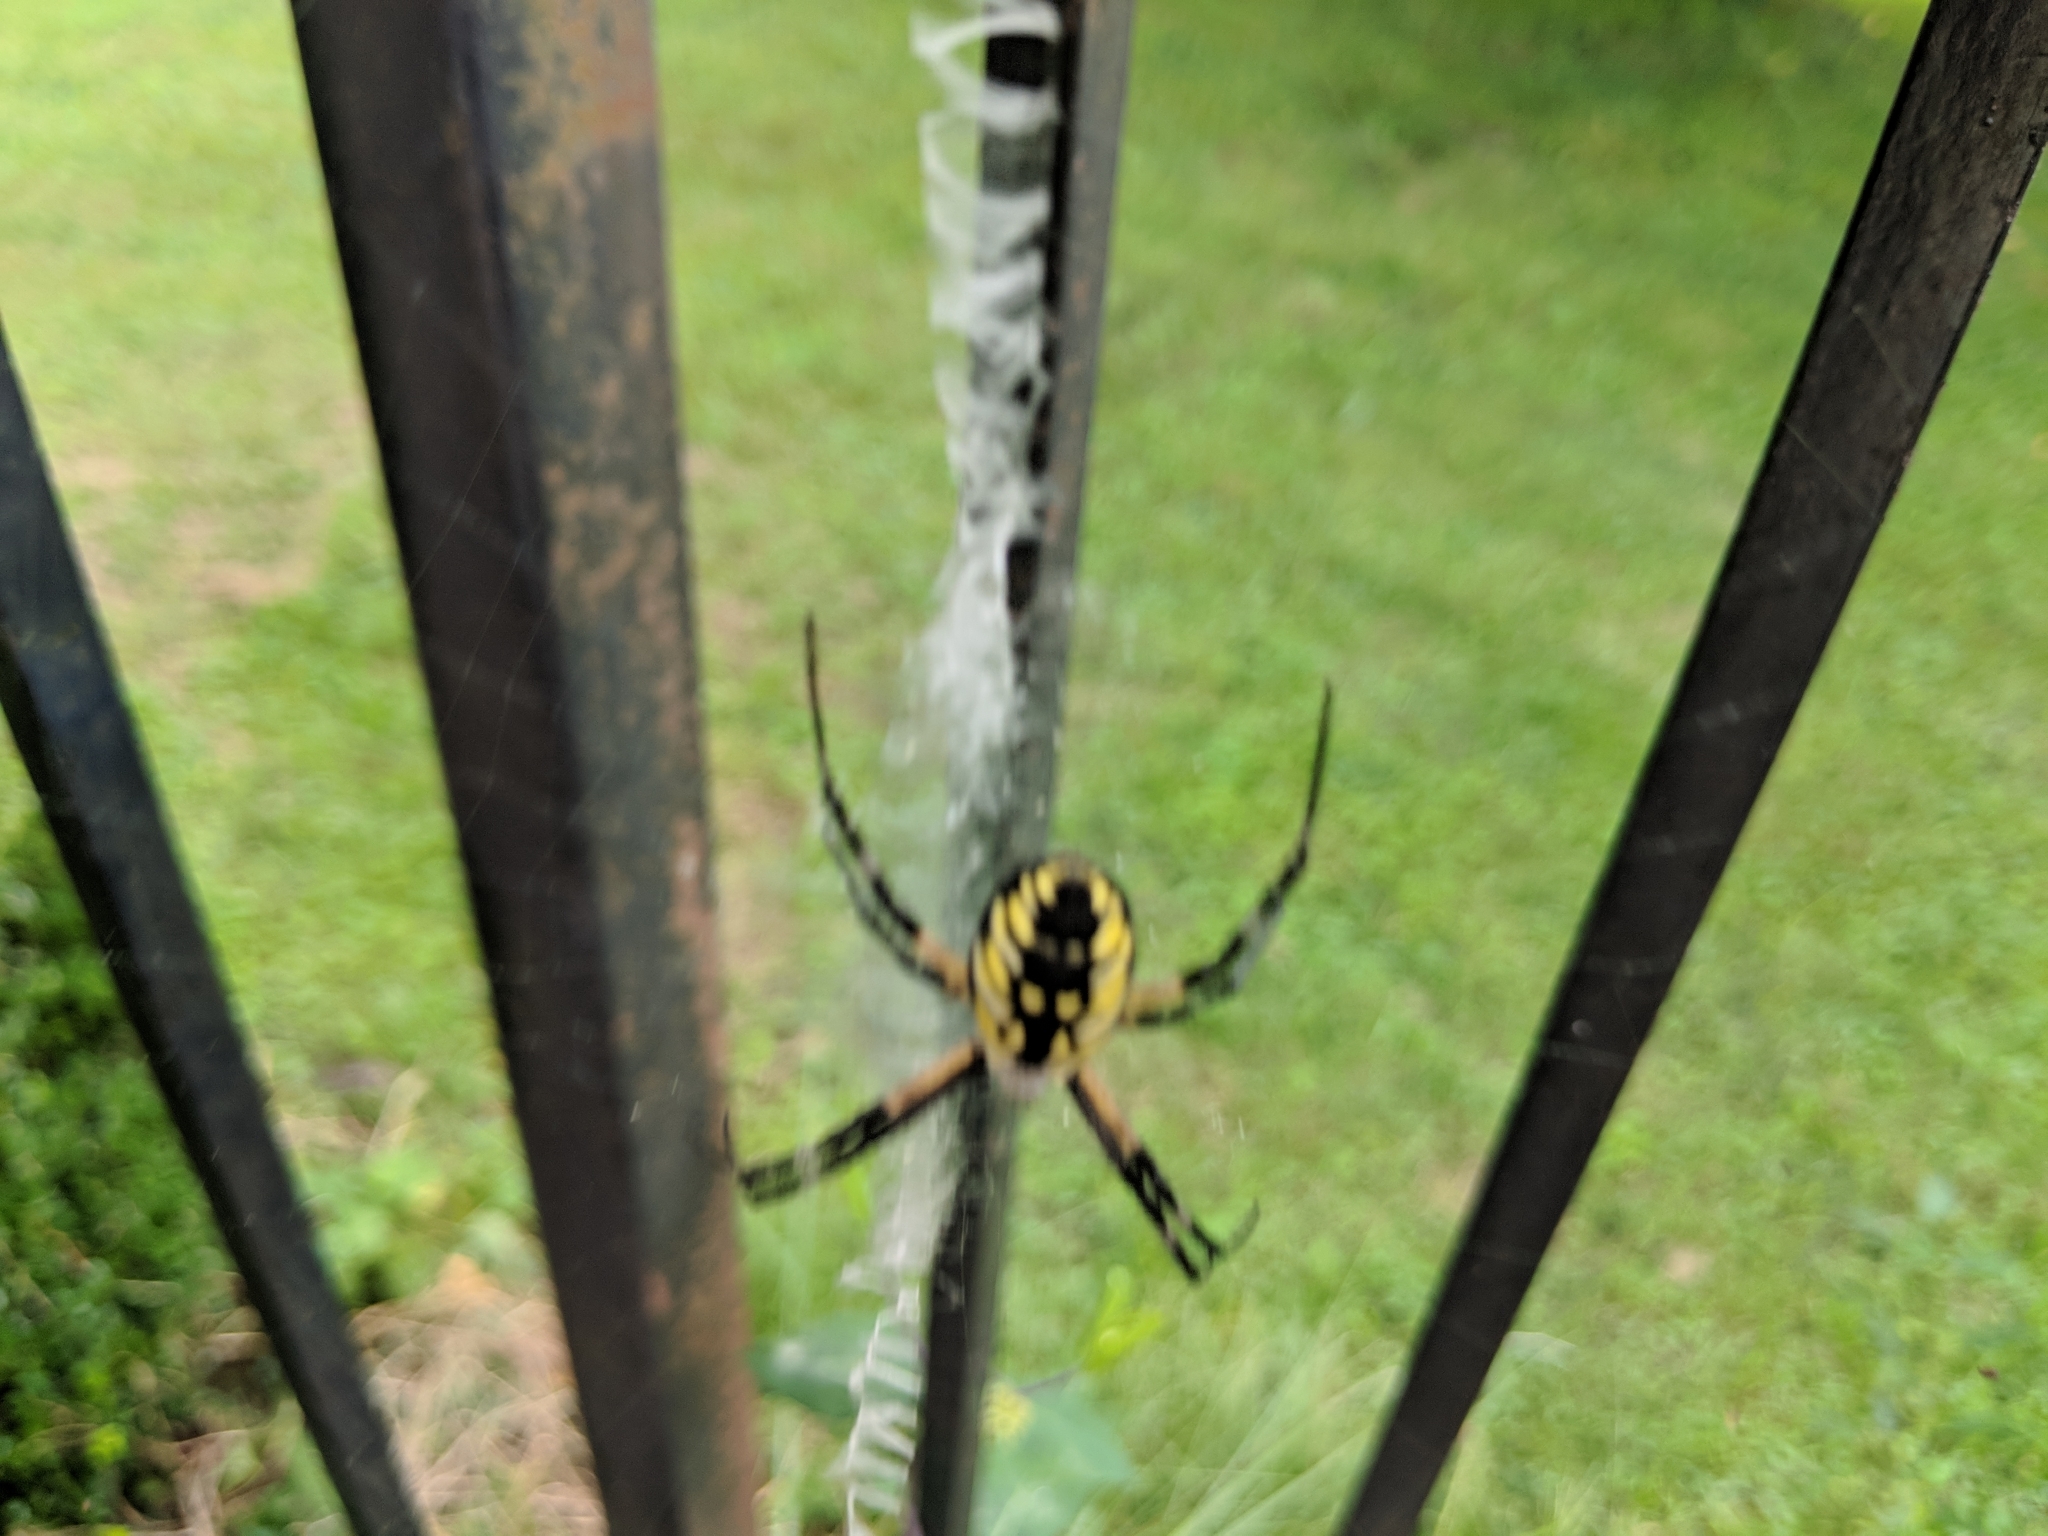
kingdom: Animalia
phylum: Arthropoda
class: Arachnida
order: Araneae
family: Araneidae
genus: Argiope
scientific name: Argiope aurantia
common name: Orb weavers
